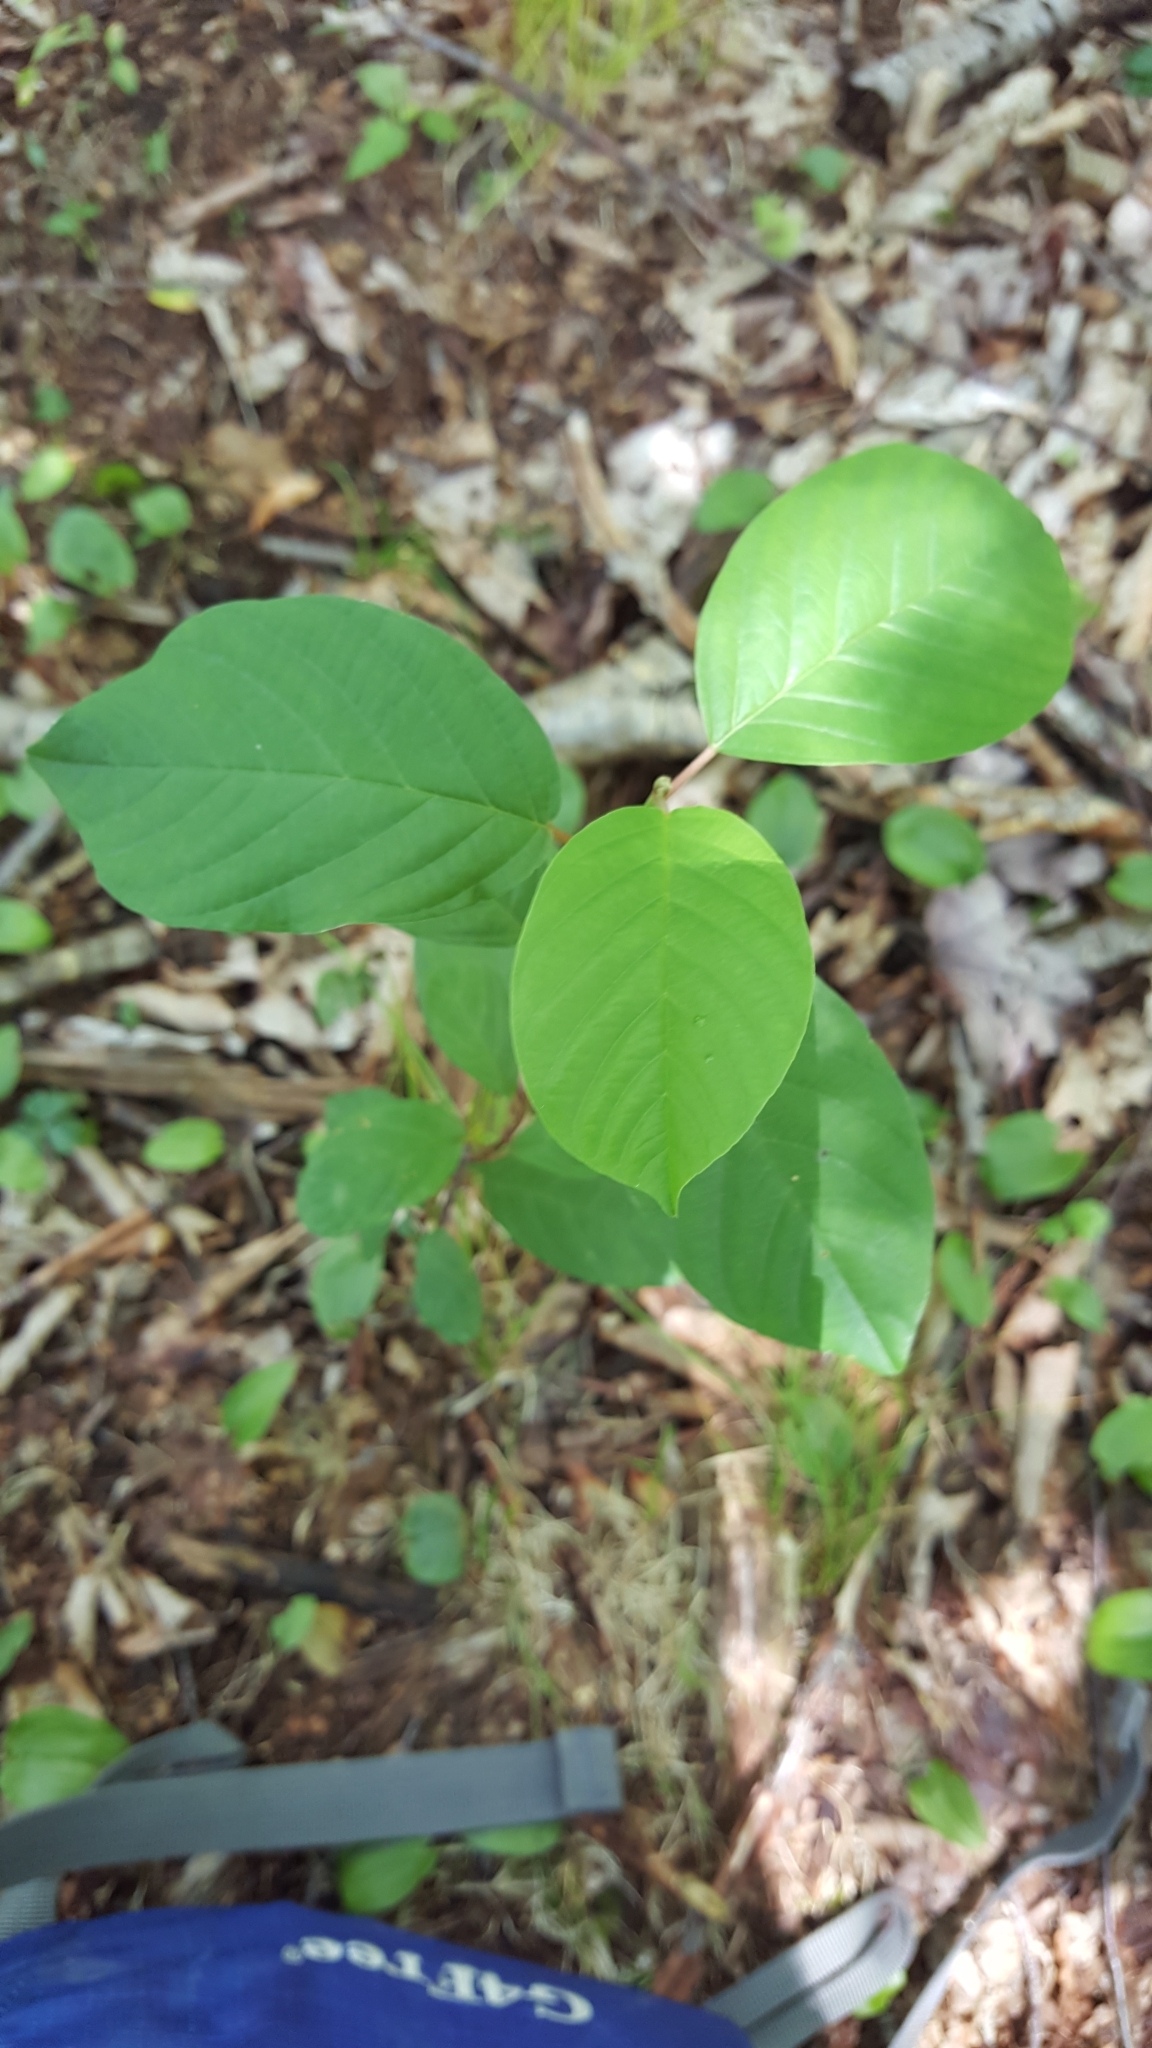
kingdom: Plantae
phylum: Tracheophyta
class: Magnoliopsida
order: Rosales
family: Rhamnaceae
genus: Frangula
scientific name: Frangula alnus
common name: Alder buckthorn
